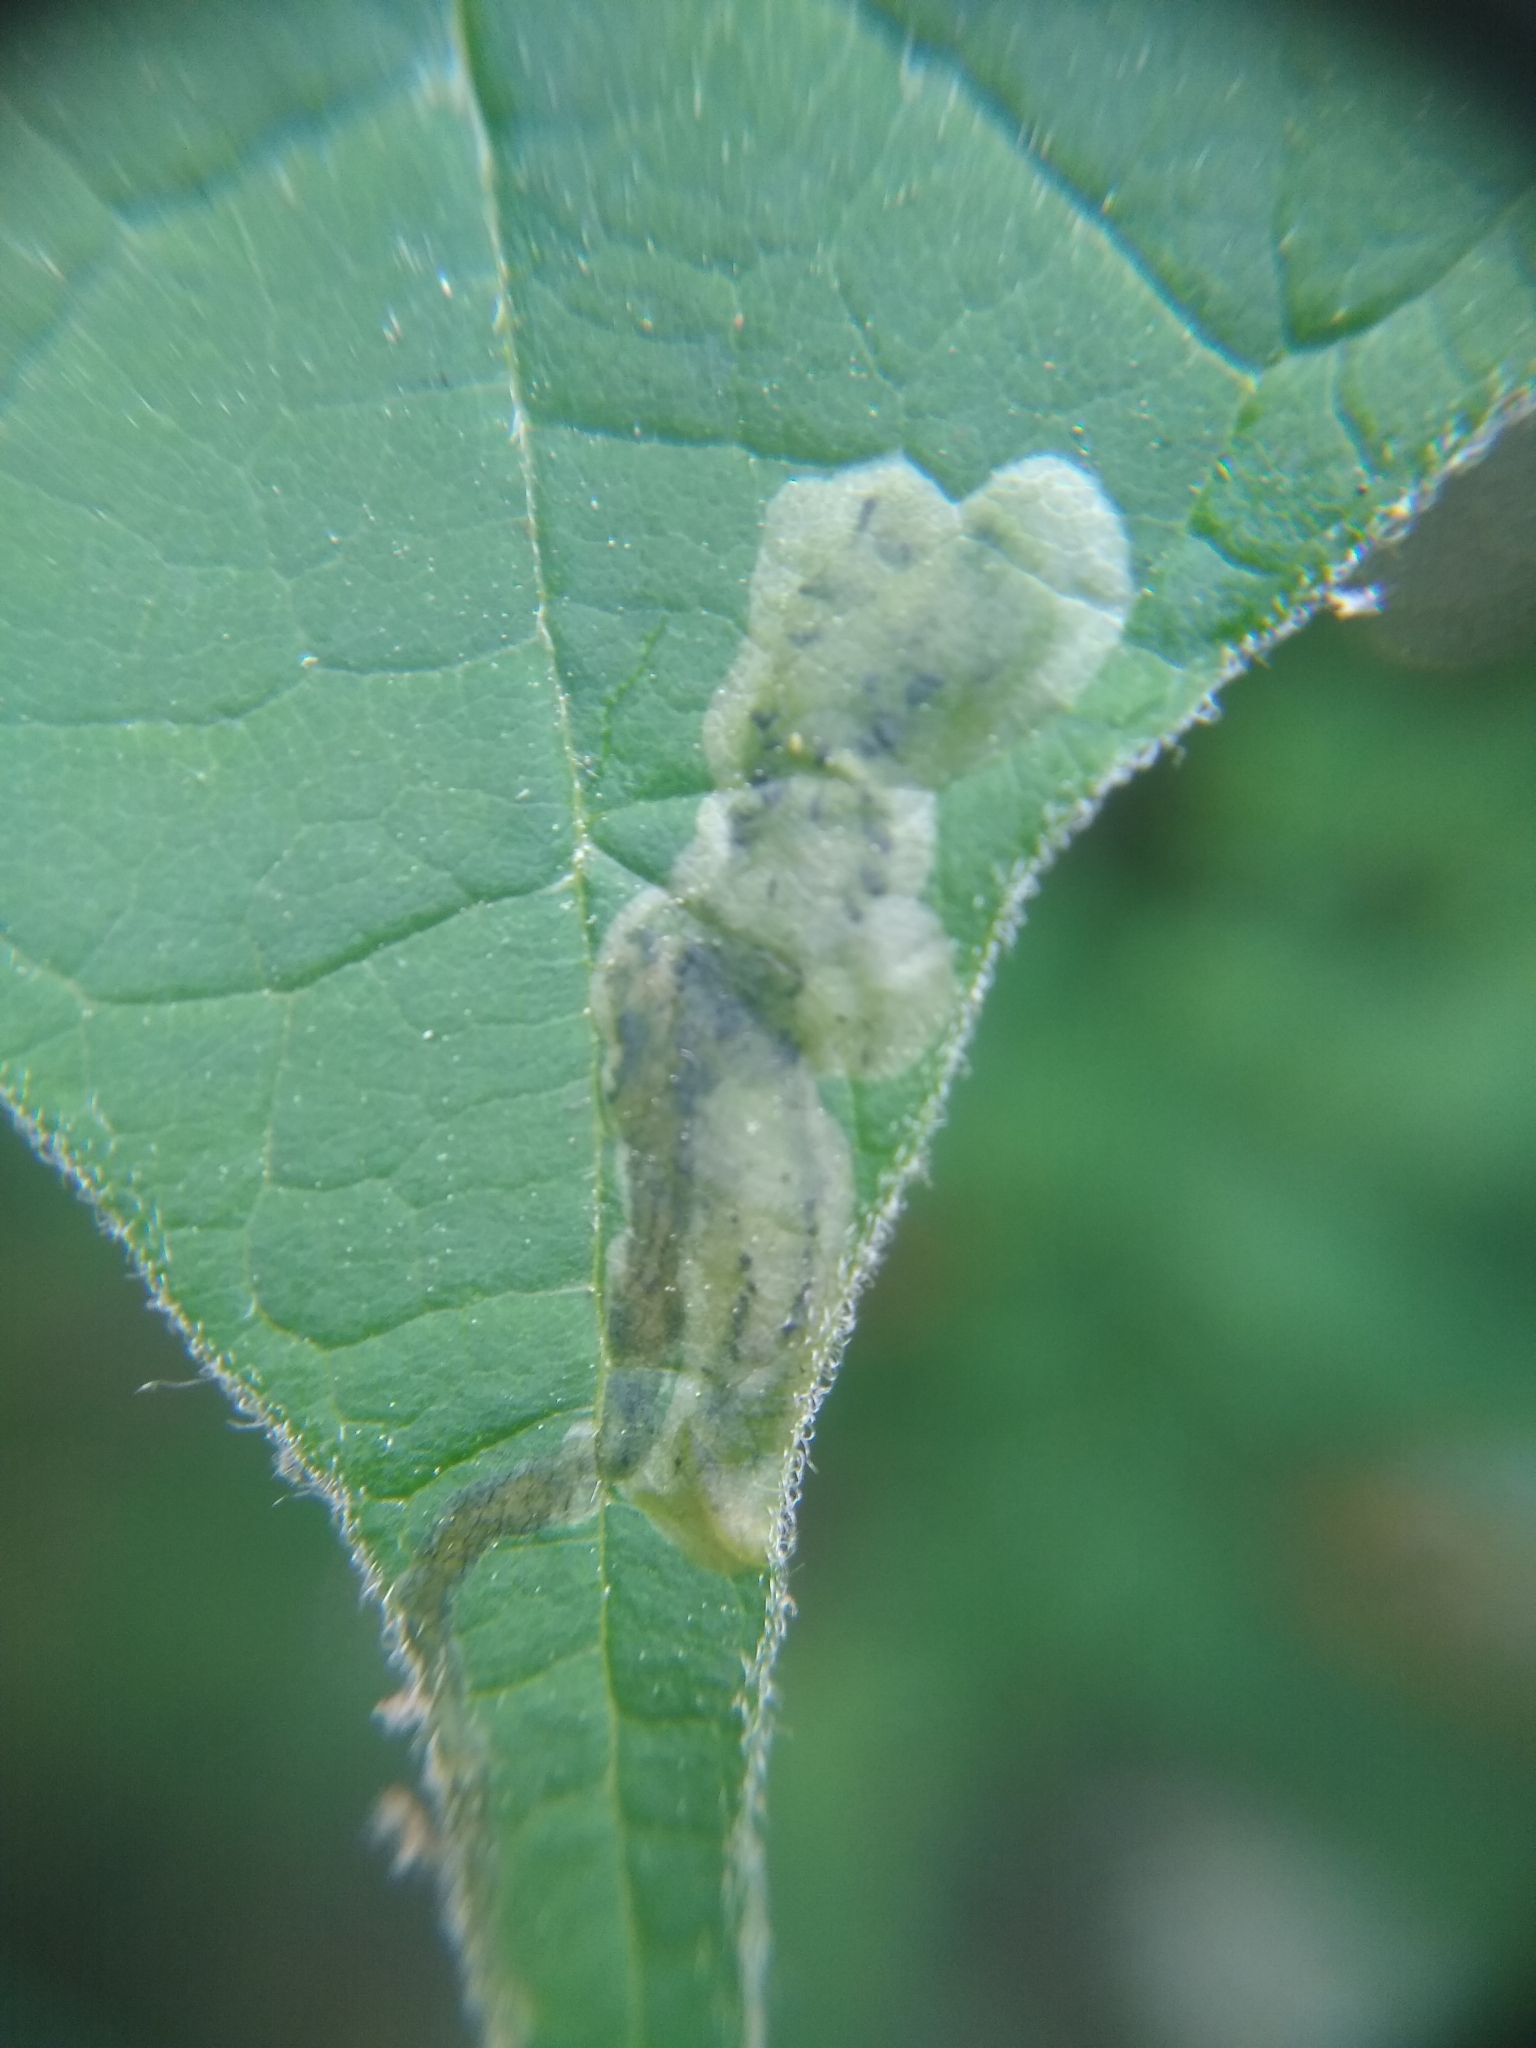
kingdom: Animalia
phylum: Arthropoda
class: Insecta
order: Diptera
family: Agromyzidae
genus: Amauromyza
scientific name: Amauromyza pleuralis
